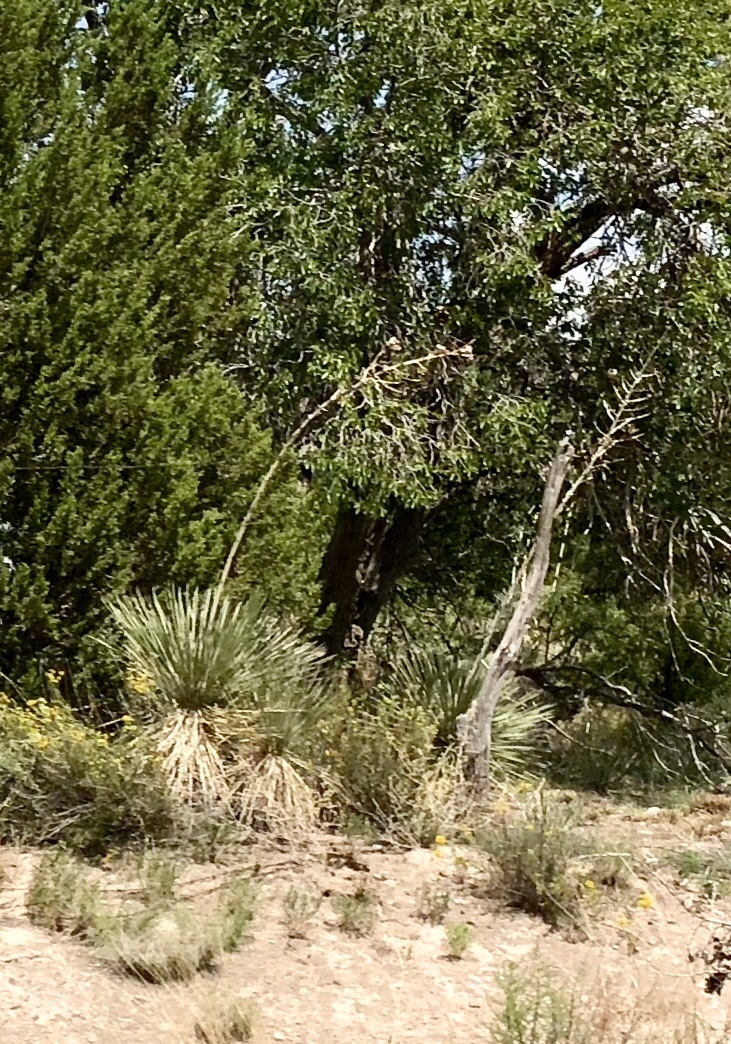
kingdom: Plantae
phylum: Tracheophyta
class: Liliopsida
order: Asparagales
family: Asparagaceae
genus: Yucca
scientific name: Yucca elata
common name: Palmella
